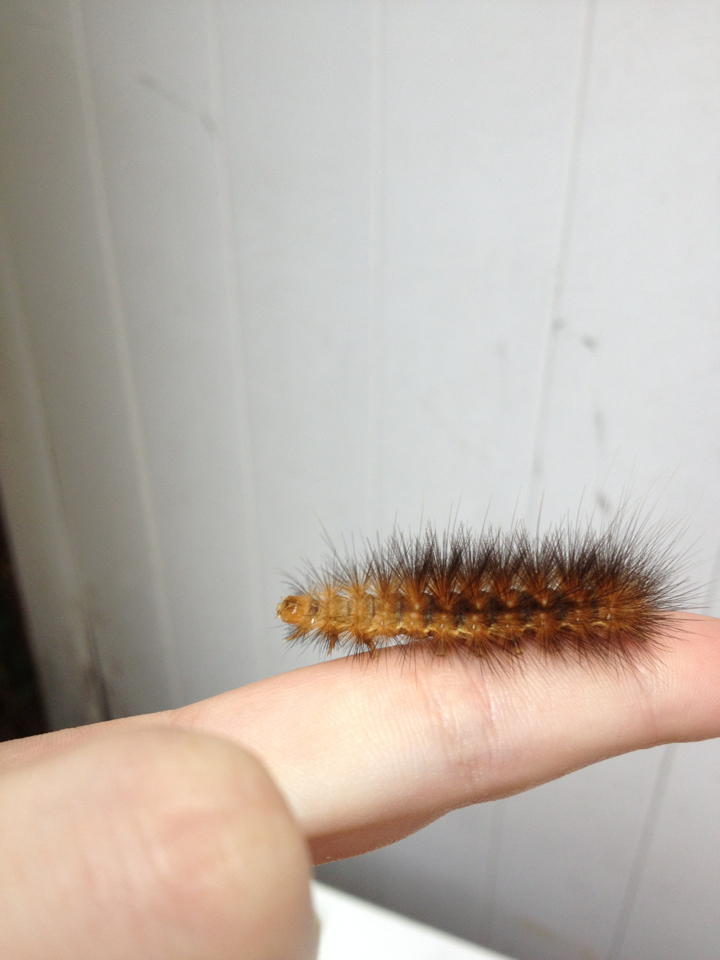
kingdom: Animalia
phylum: Arthropoda
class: Insecta
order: Lepidoptera
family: Erebidae
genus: Spilosoma
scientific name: Spilosoma virginica
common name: Virginia tiger moth
